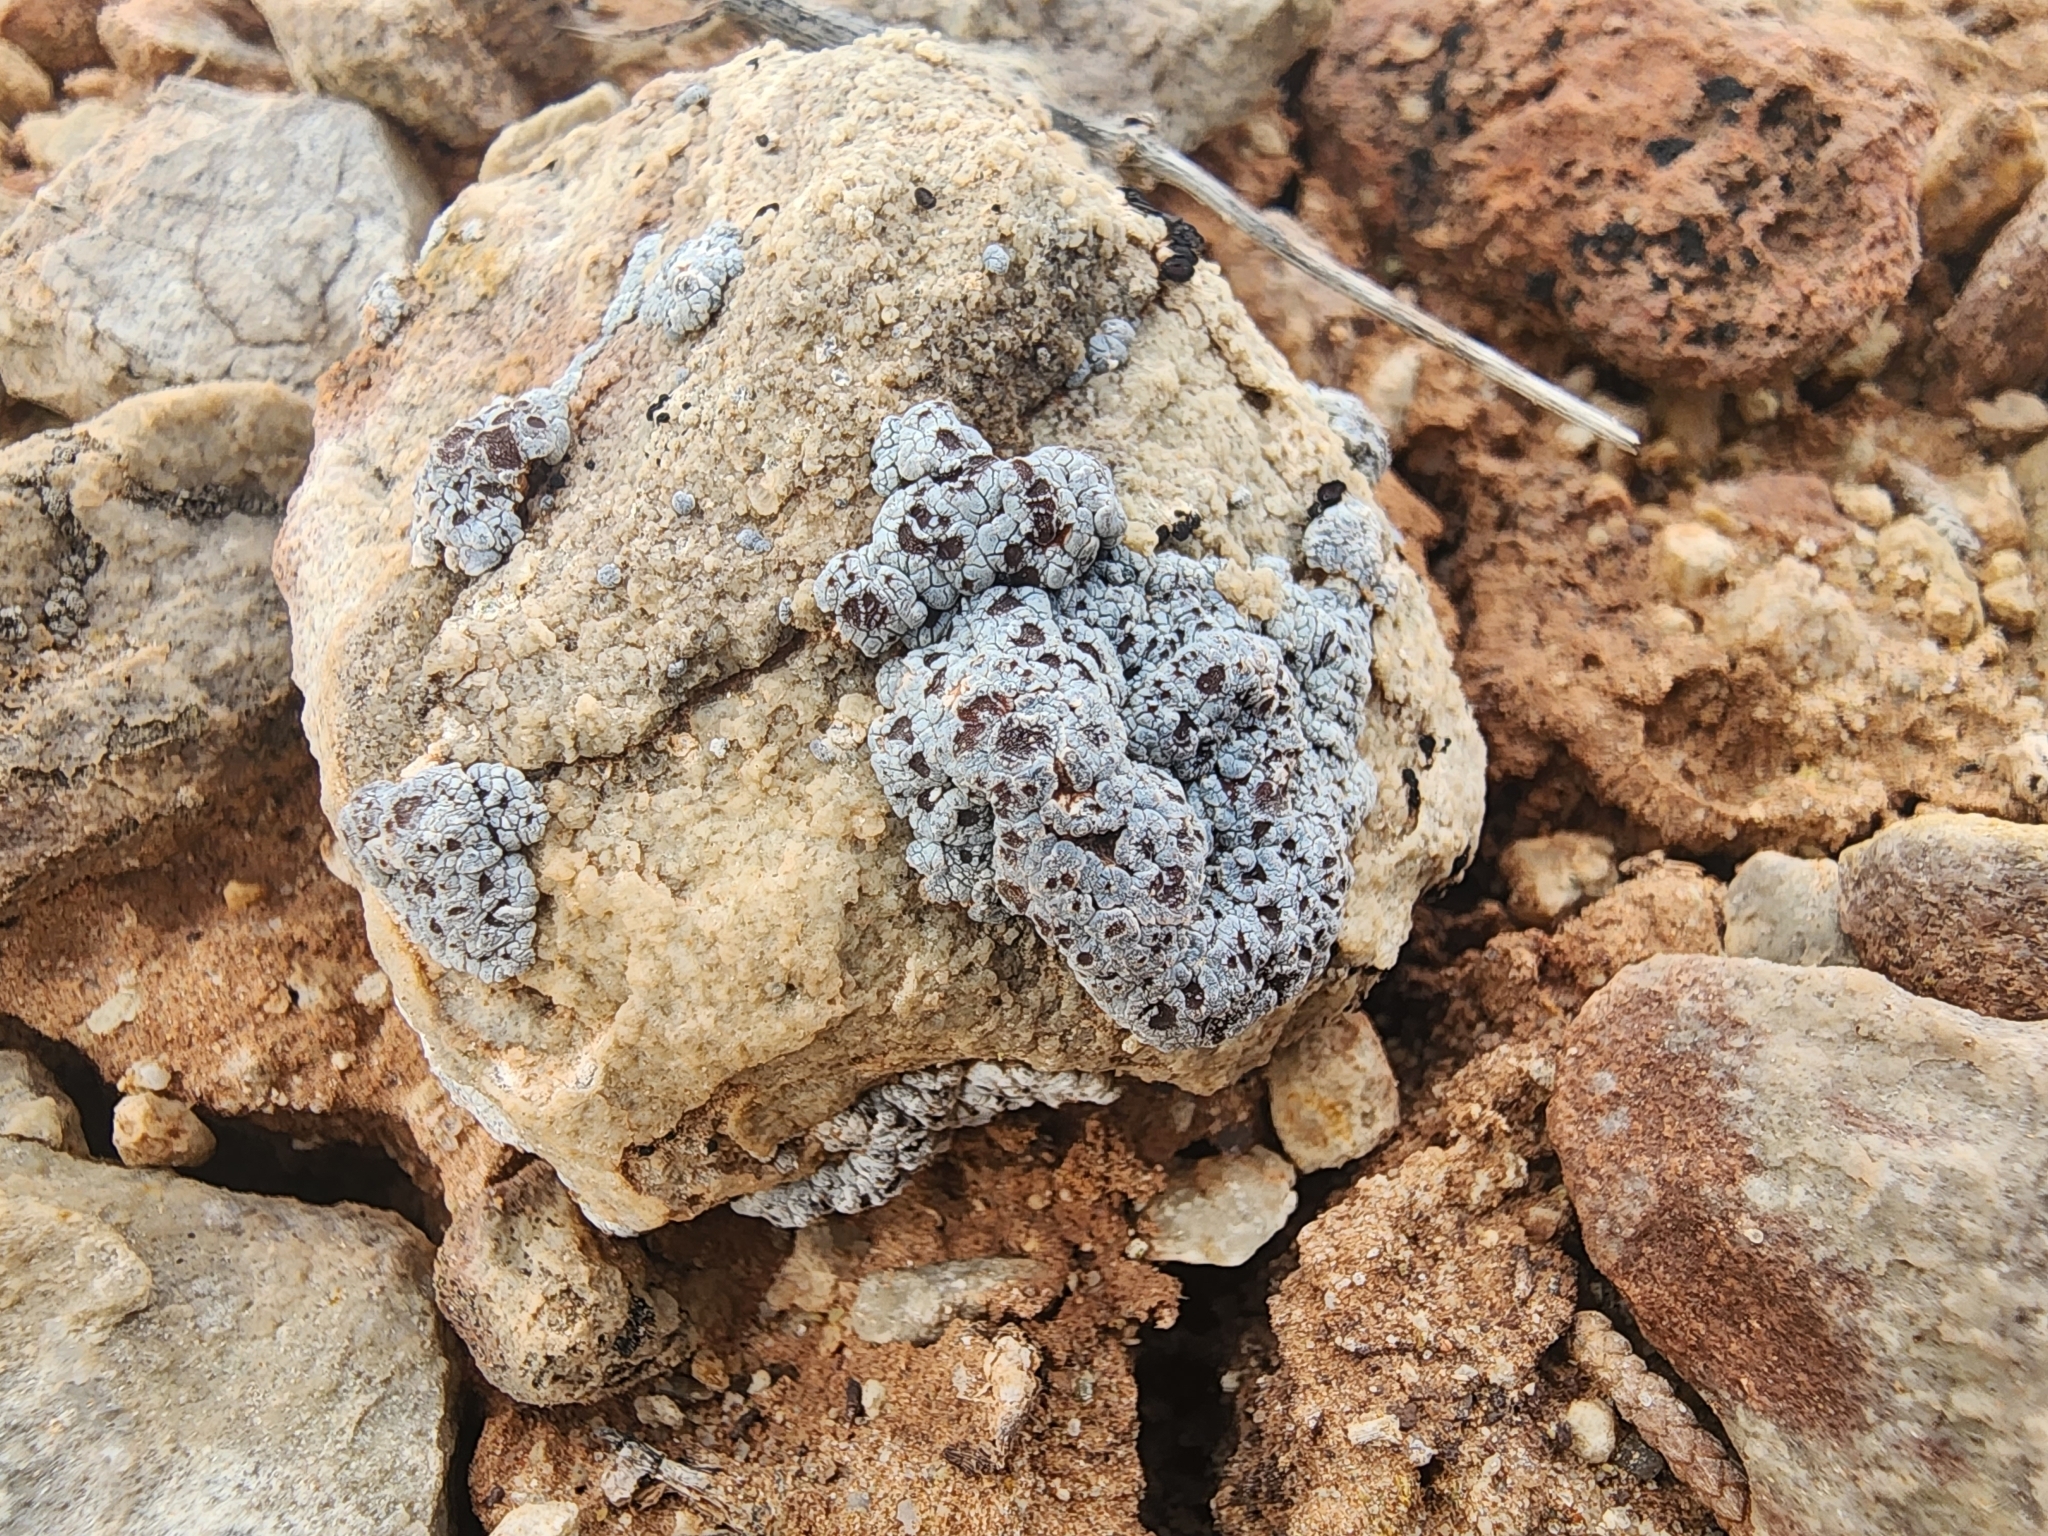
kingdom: Fungi
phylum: Ascomycota
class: Lecanoromycetes
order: Acarosporales
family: Acarosporaceae
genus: Acarospora
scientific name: Acarospora strigata
